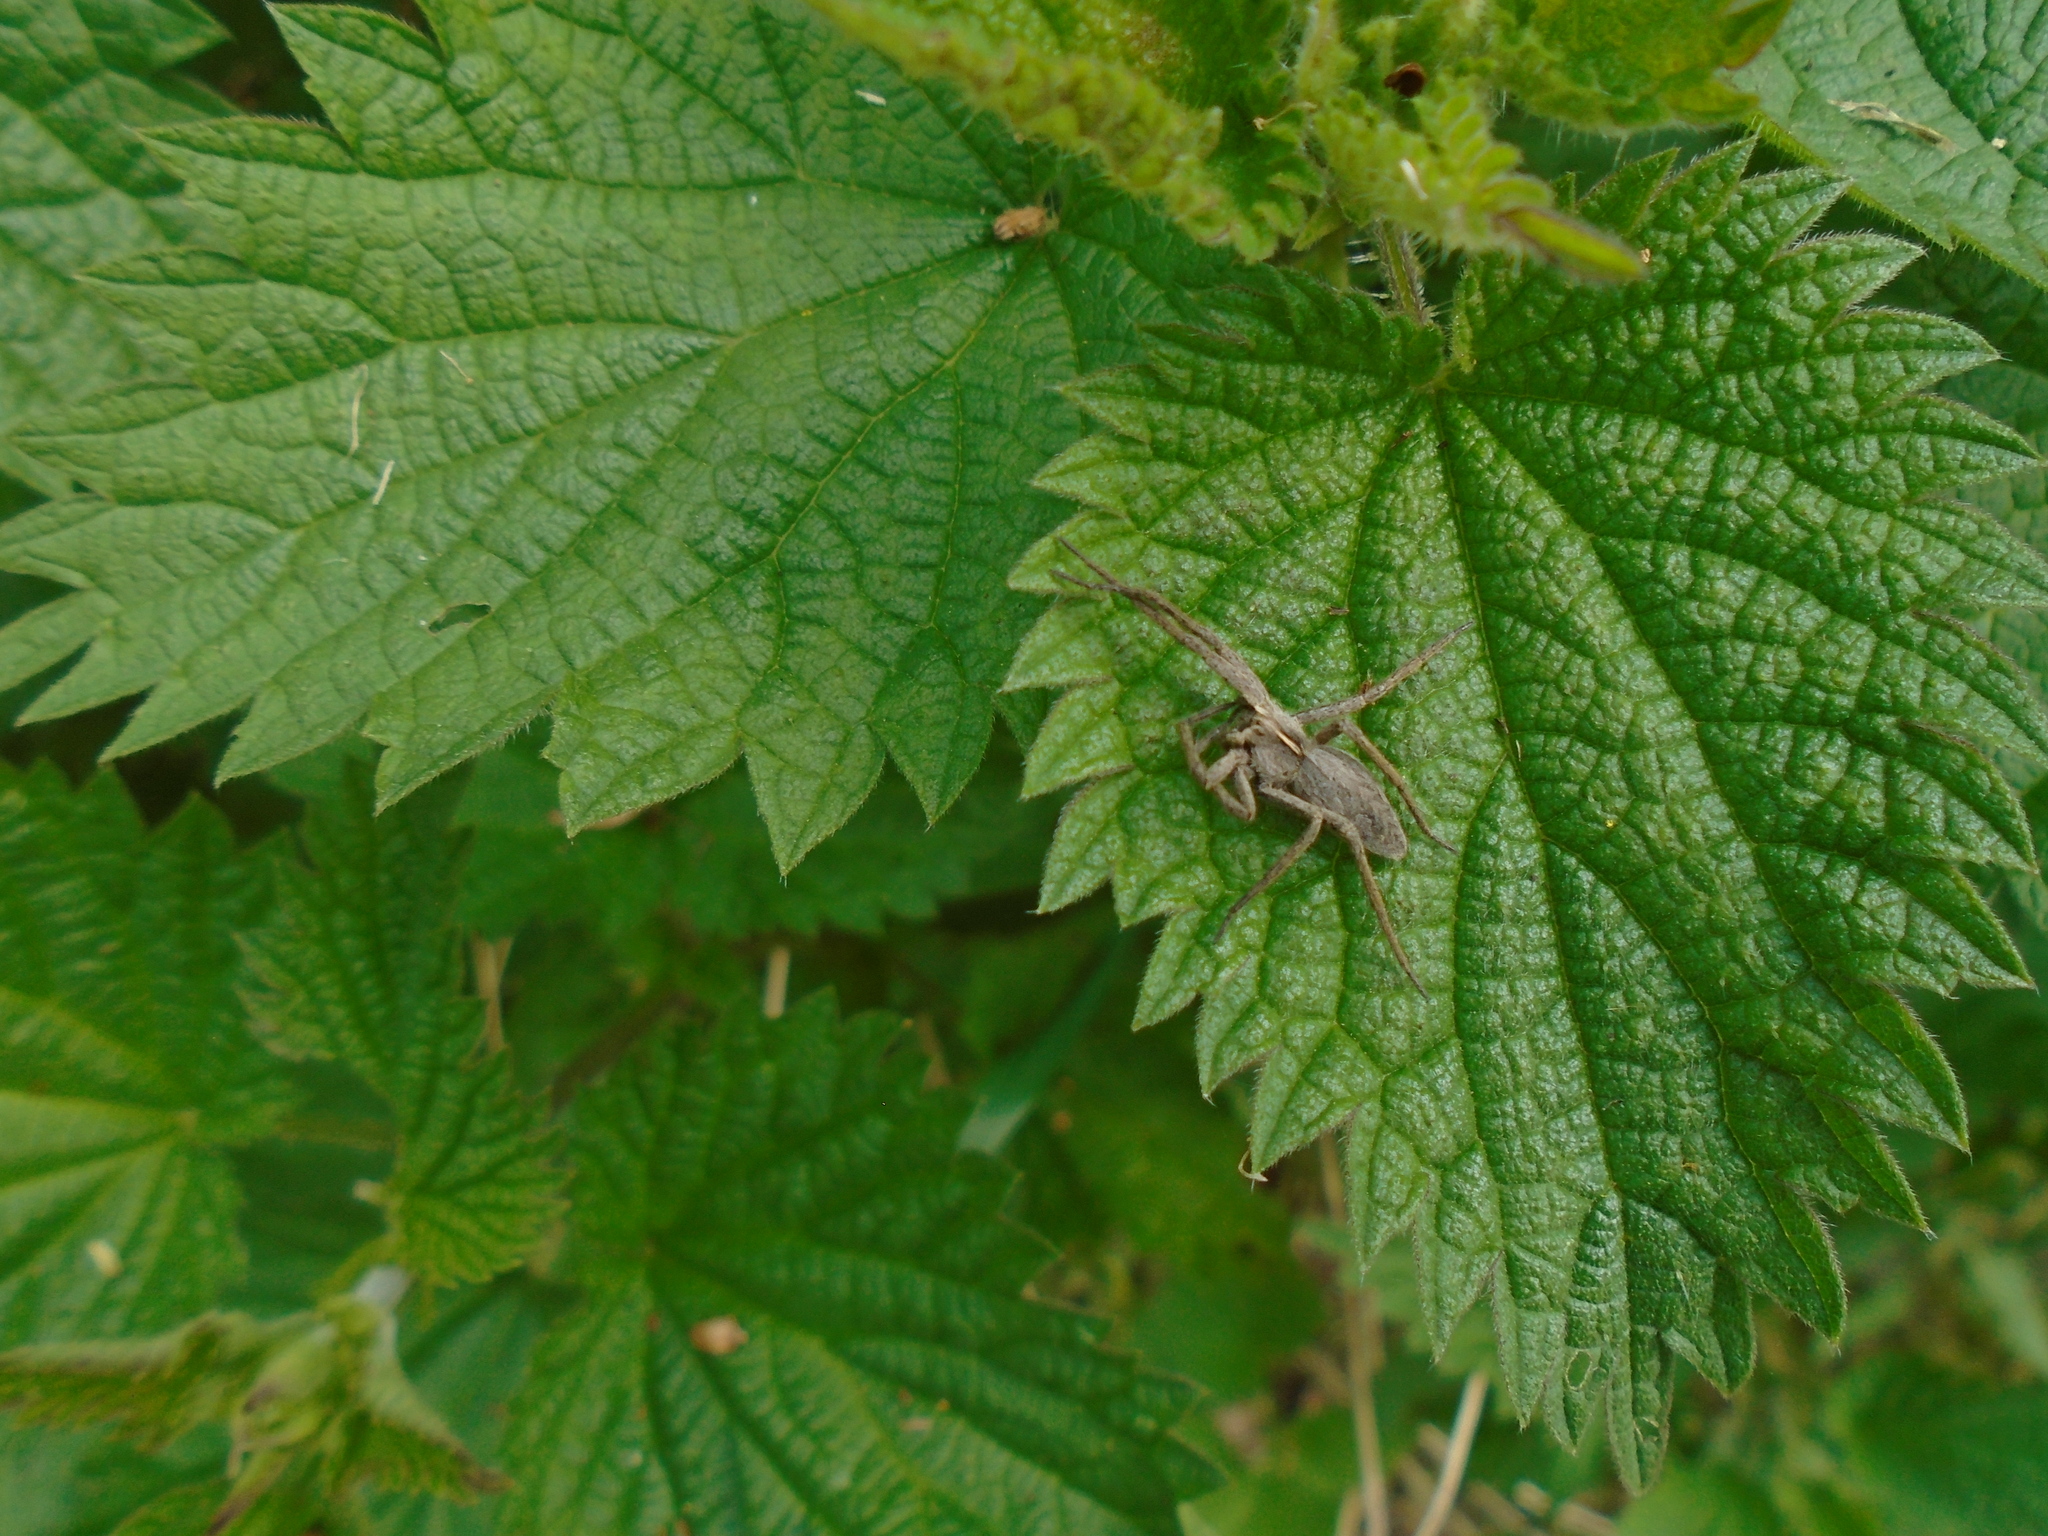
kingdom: Animalia
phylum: Arthropoda
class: Arachnida
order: Araneae
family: Pisauridae
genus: Pisaura
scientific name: Pisaura mirabilis
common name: Tent spider
